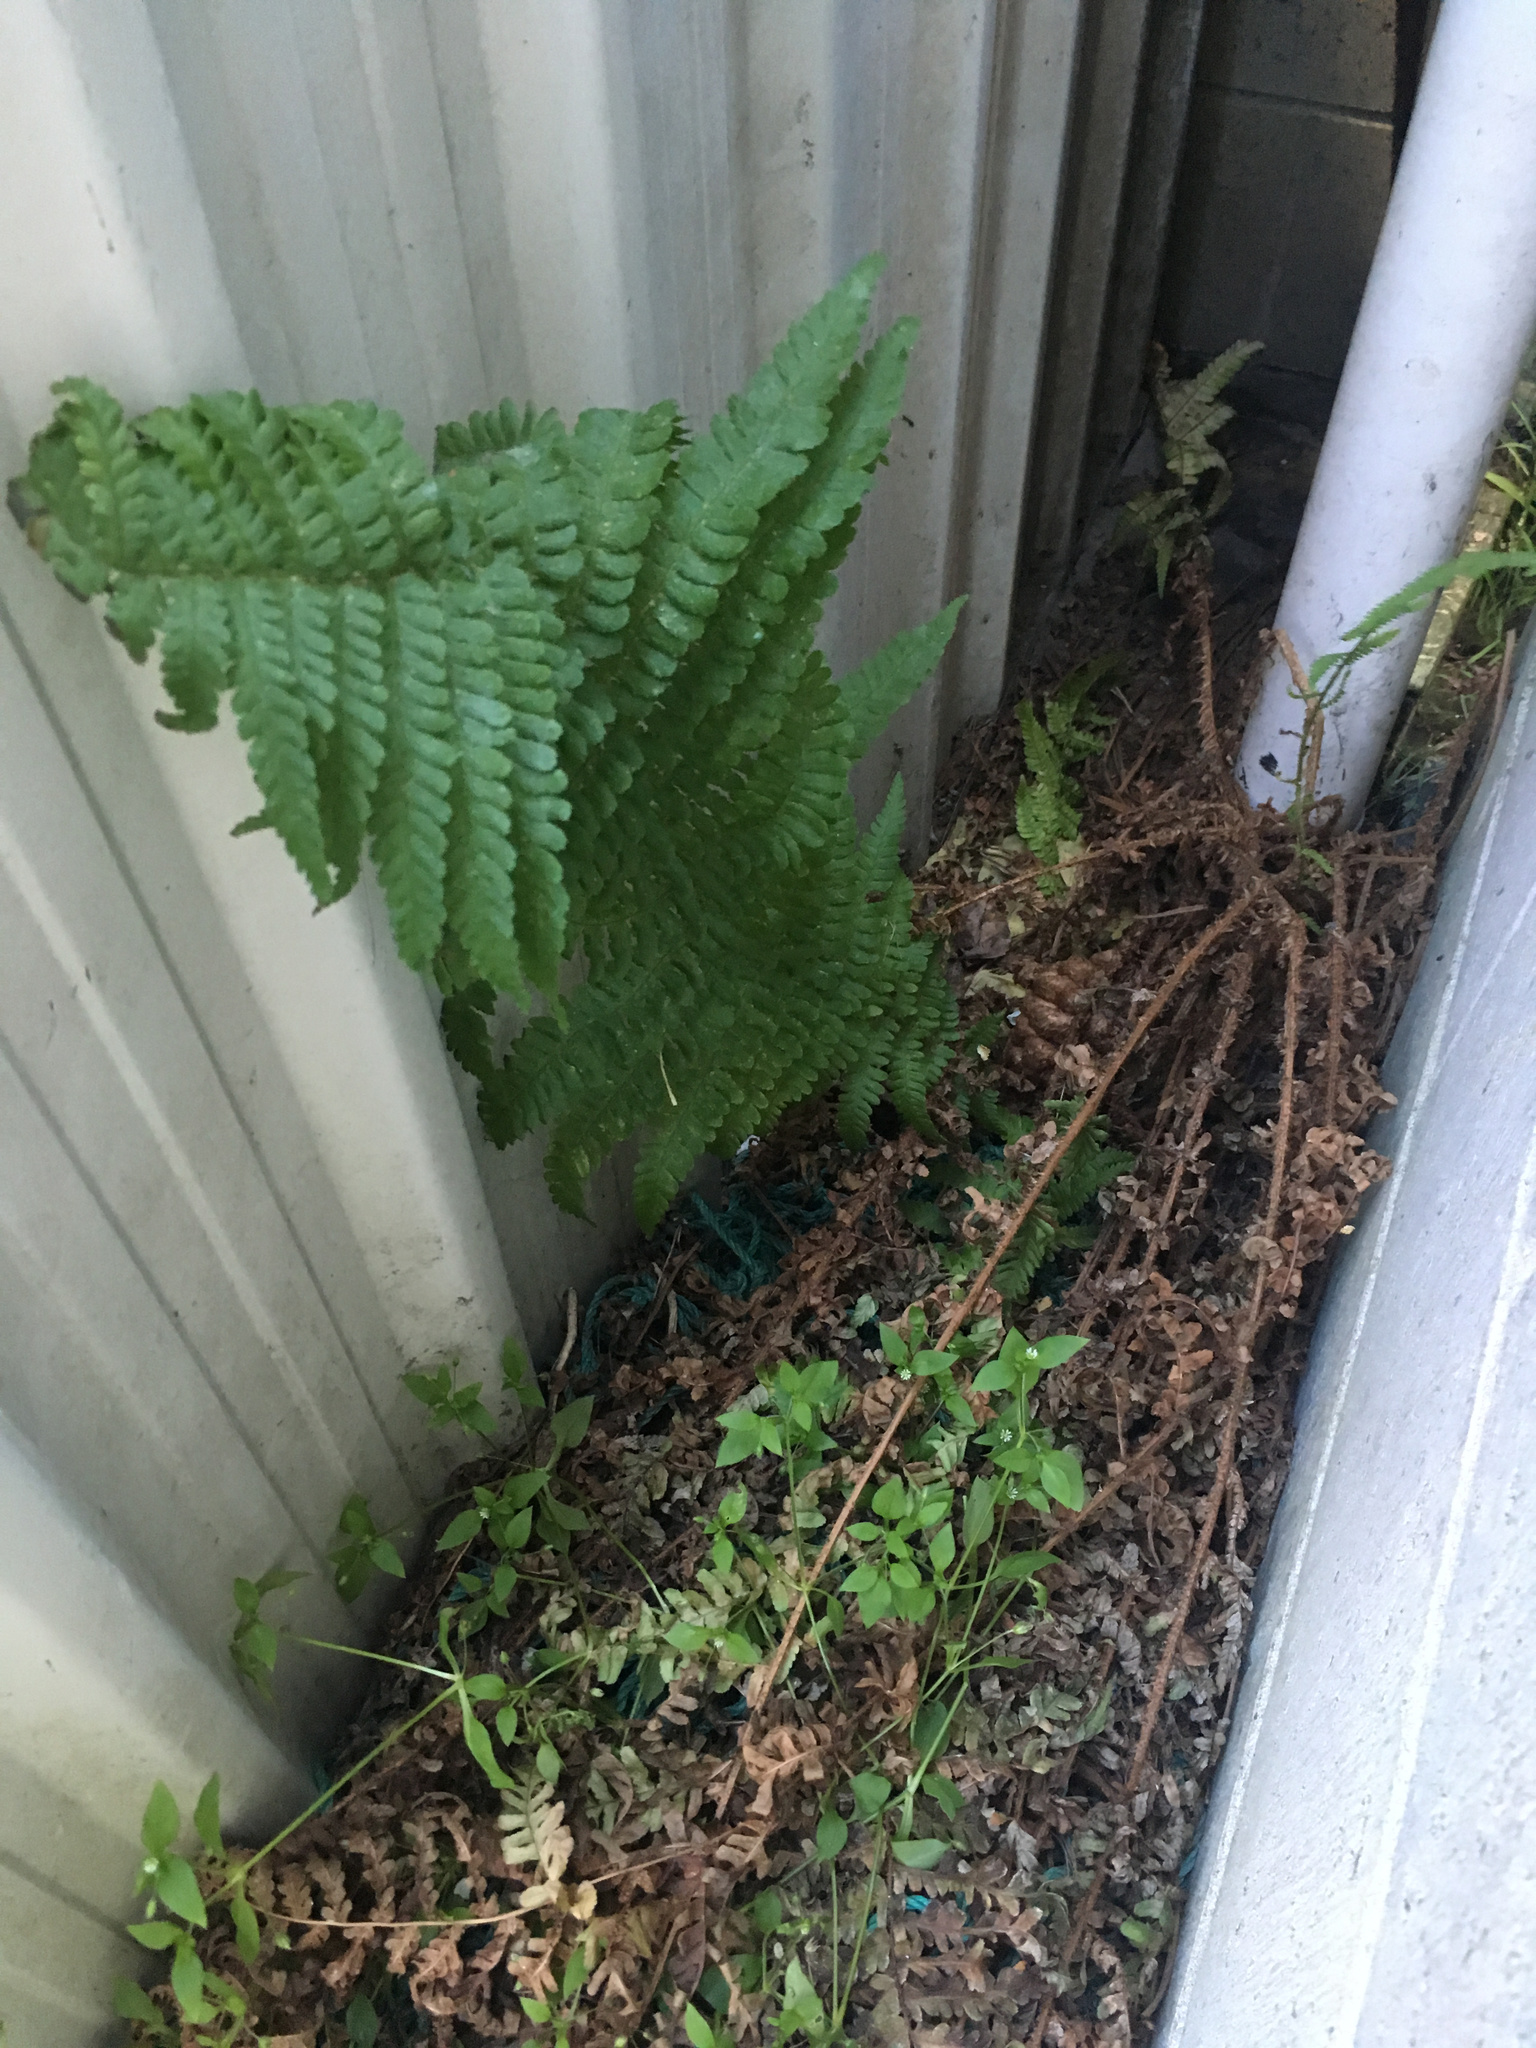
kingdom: Plantae
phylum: Tracheophyta
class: Polypodiopsida
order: Polypodiales
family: Dryopteridaceae
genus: Dryopteris
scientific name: Dryopteris filix-mas
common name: Male fern
